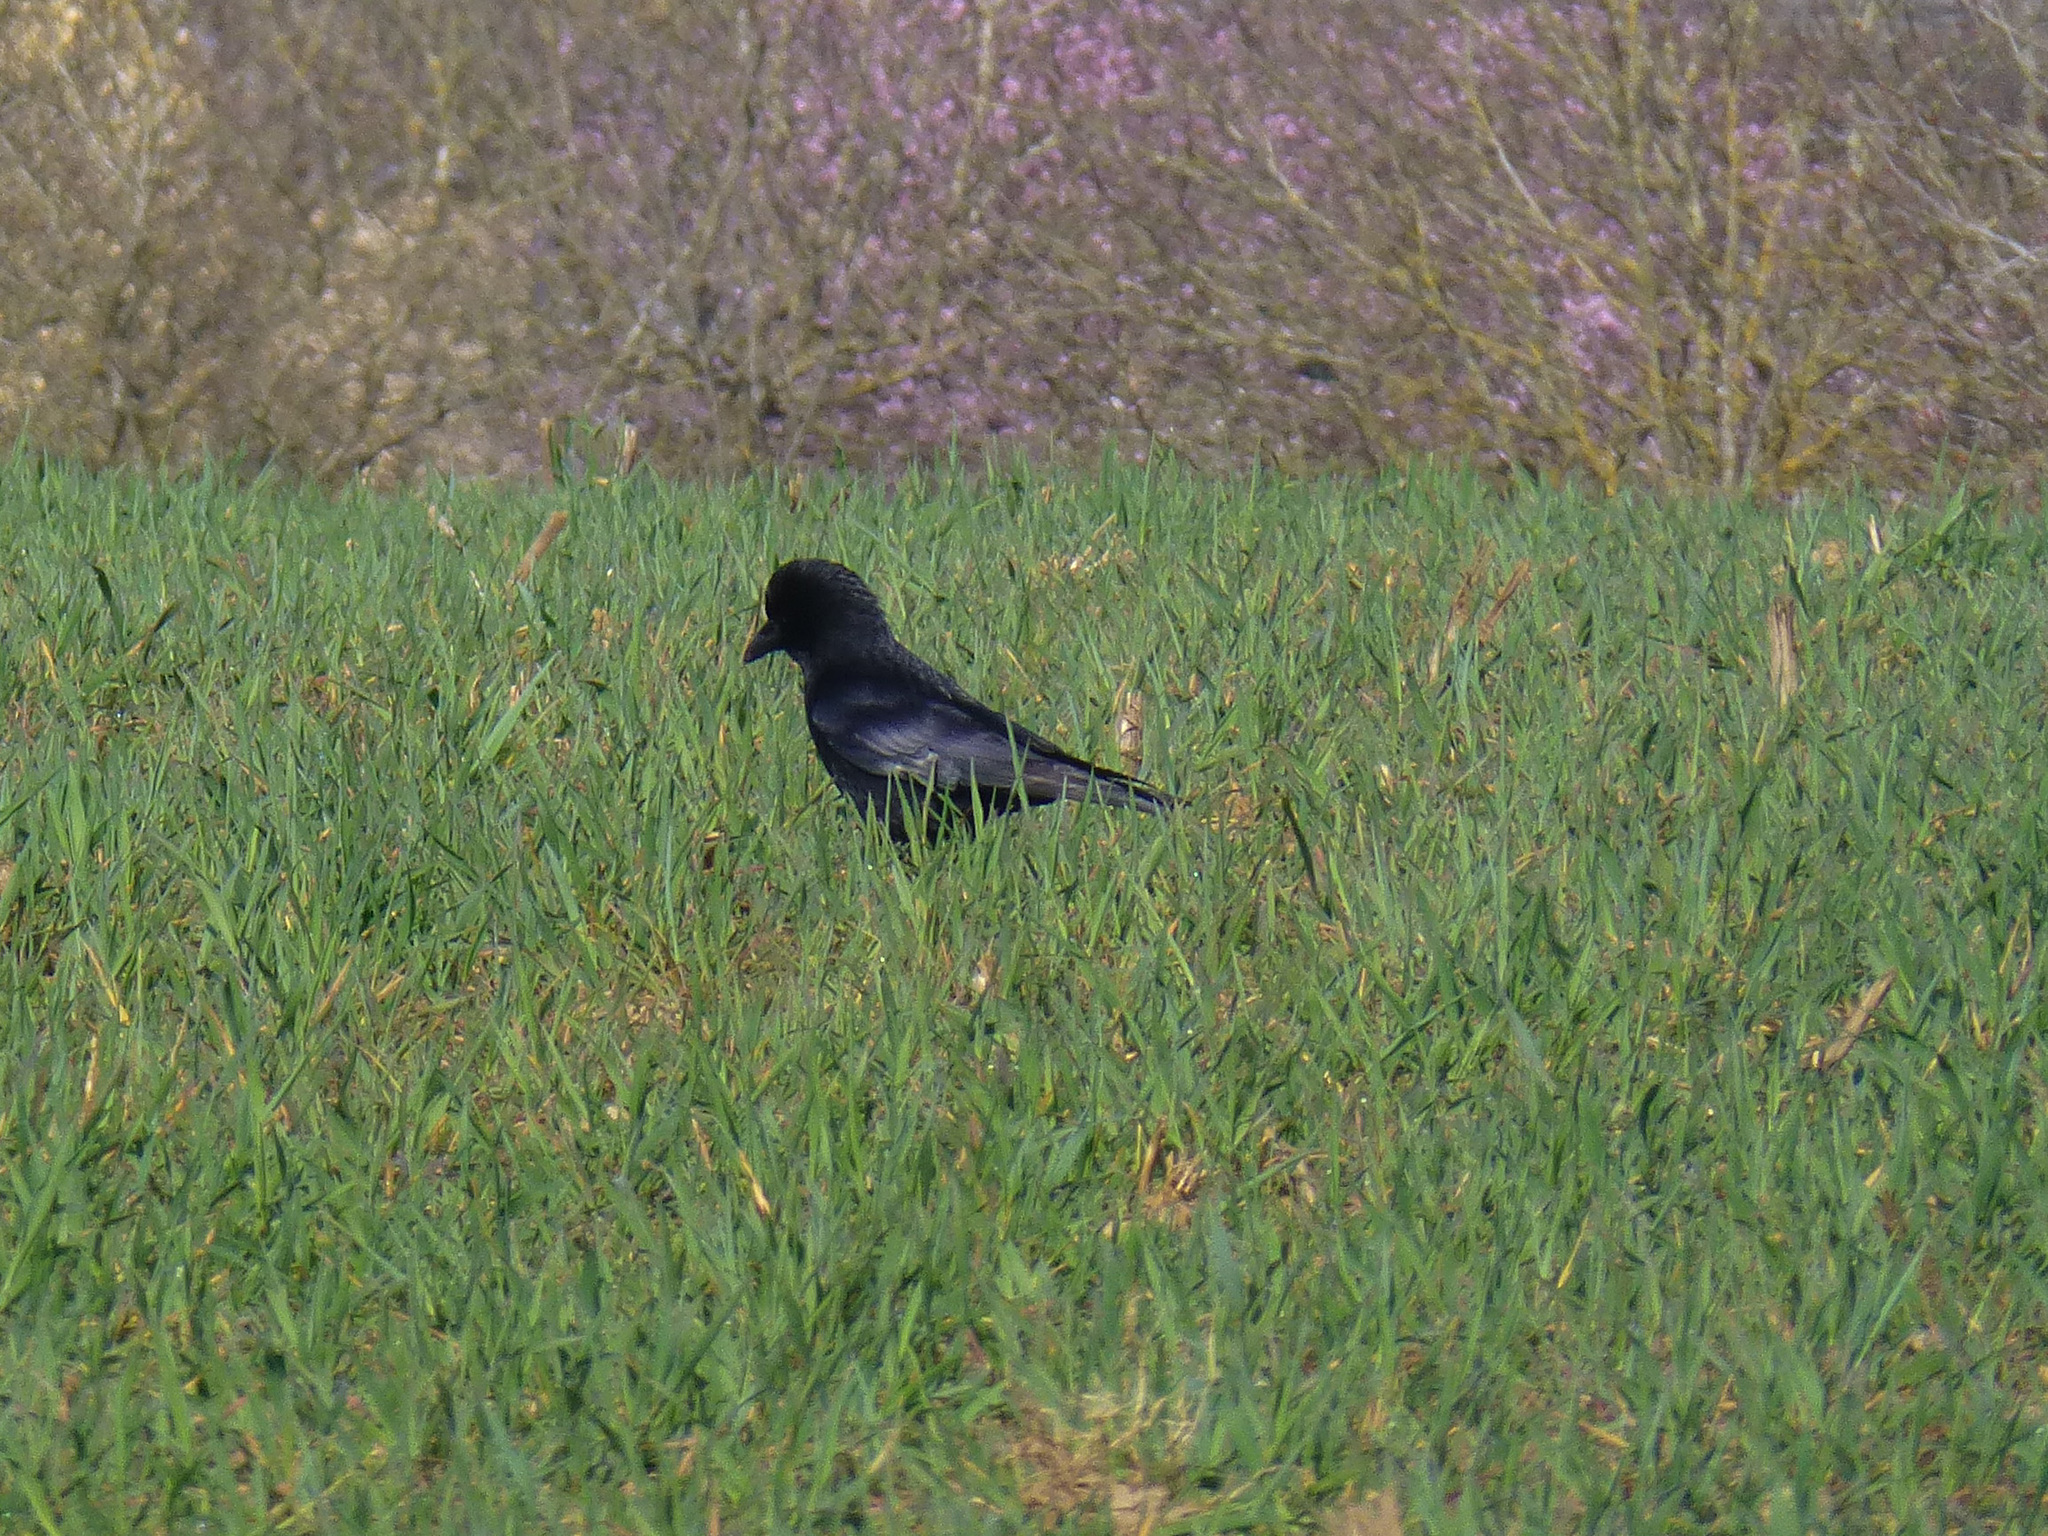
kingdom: Animalia
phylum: Chordata
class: Aves
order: Passeriformes
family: Corvidae
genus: Corvus
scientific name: Corvus corone
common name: Carrion crow
